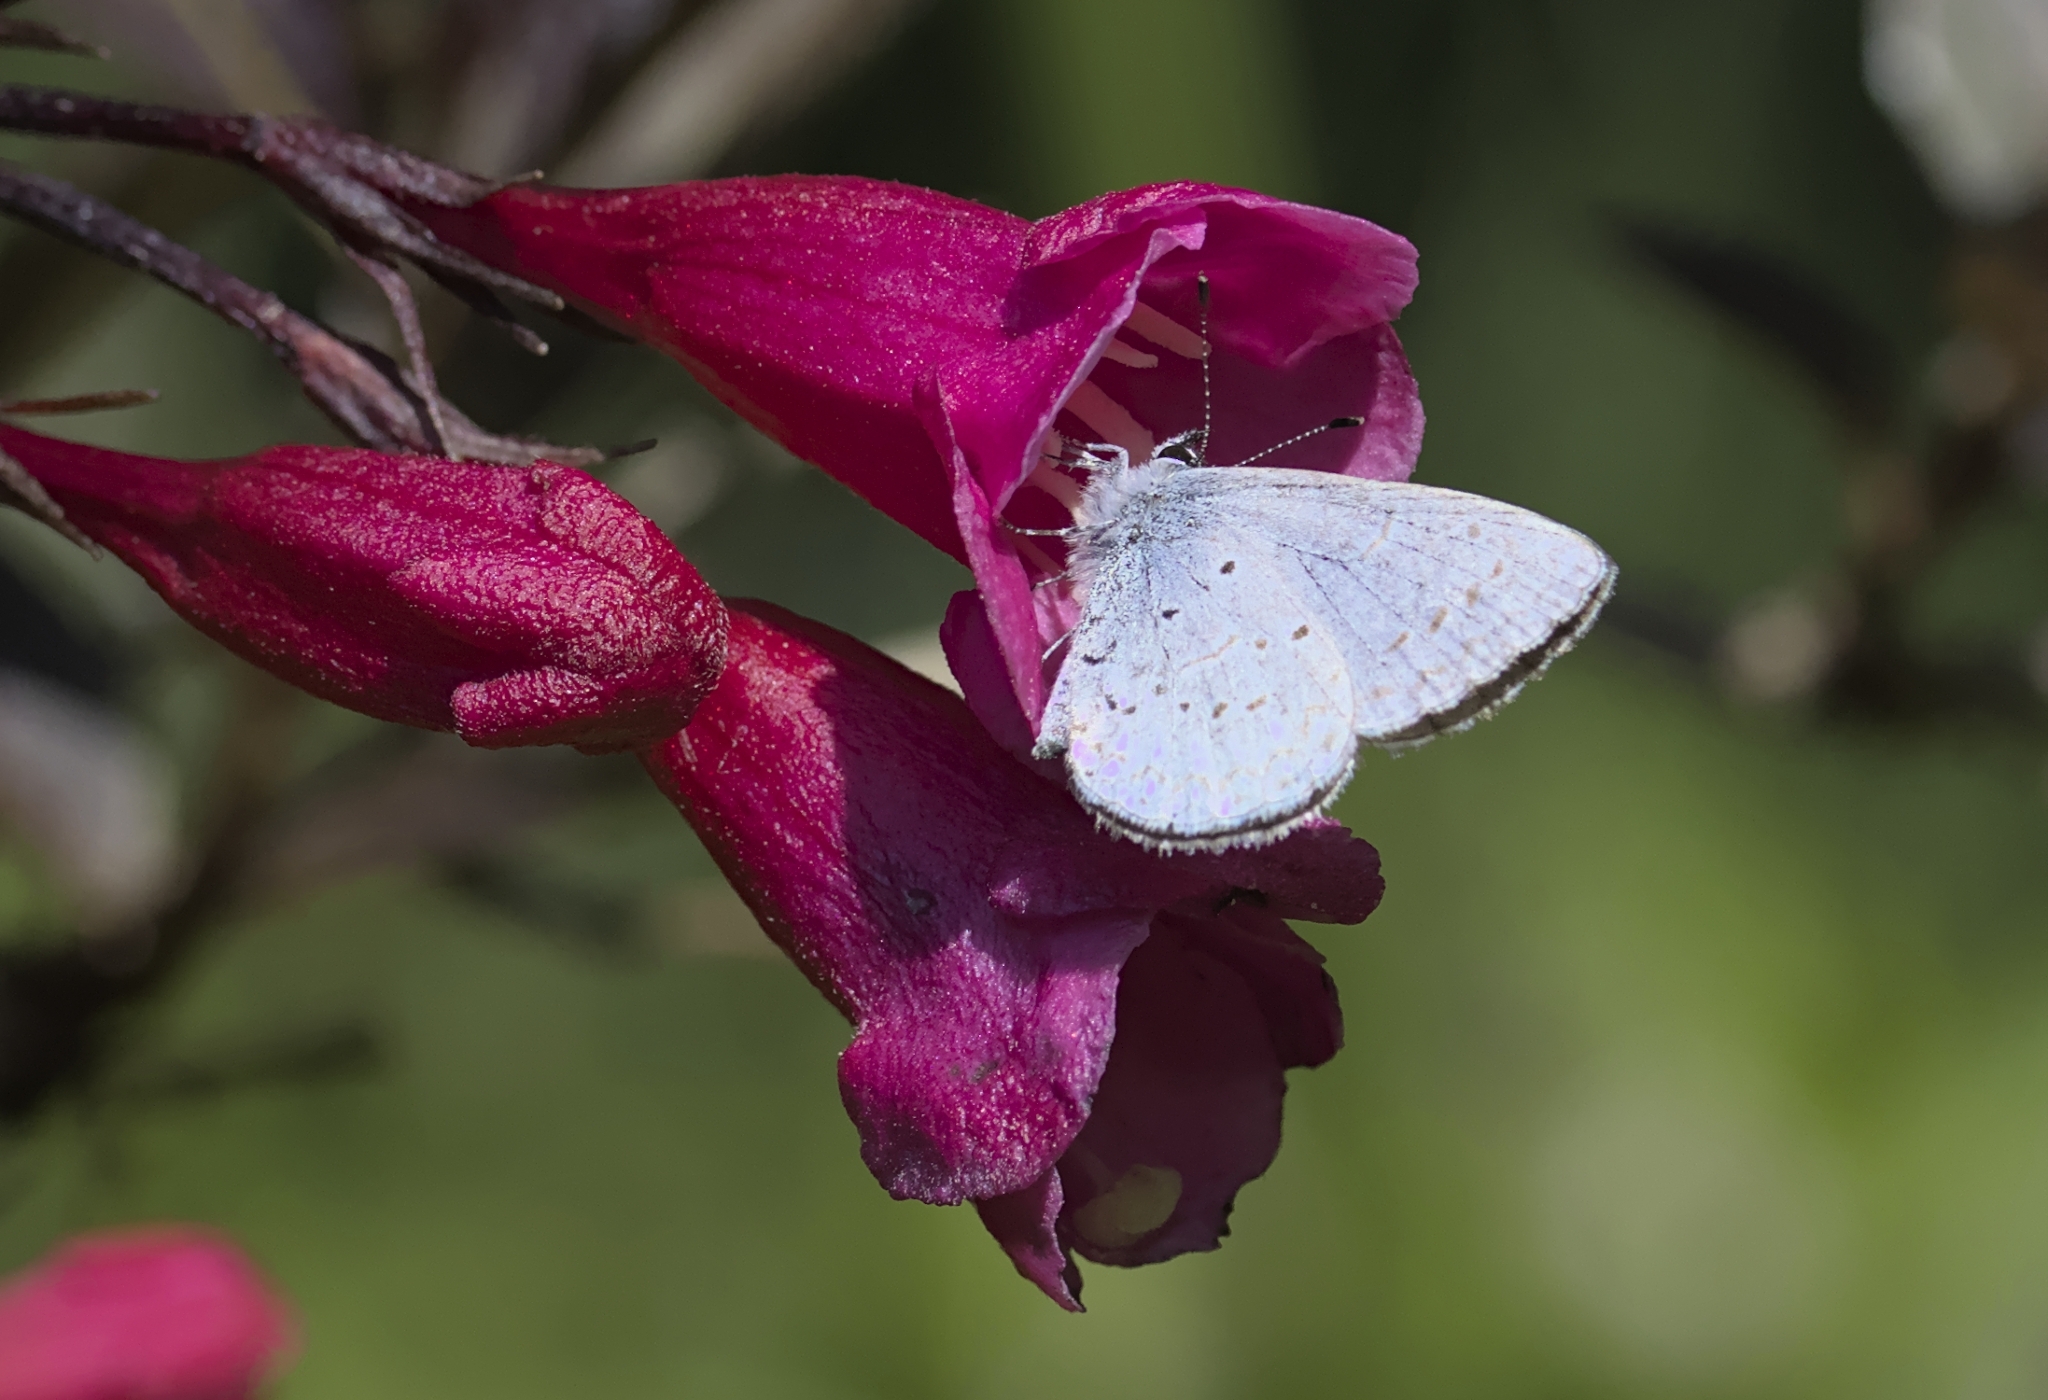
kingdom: Animalia
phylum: Arthropoda
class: Insecta
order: Lepidoptera
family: Lycaenidae
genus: Celastrina
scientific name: Celastrina ladon
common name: Spring azure
